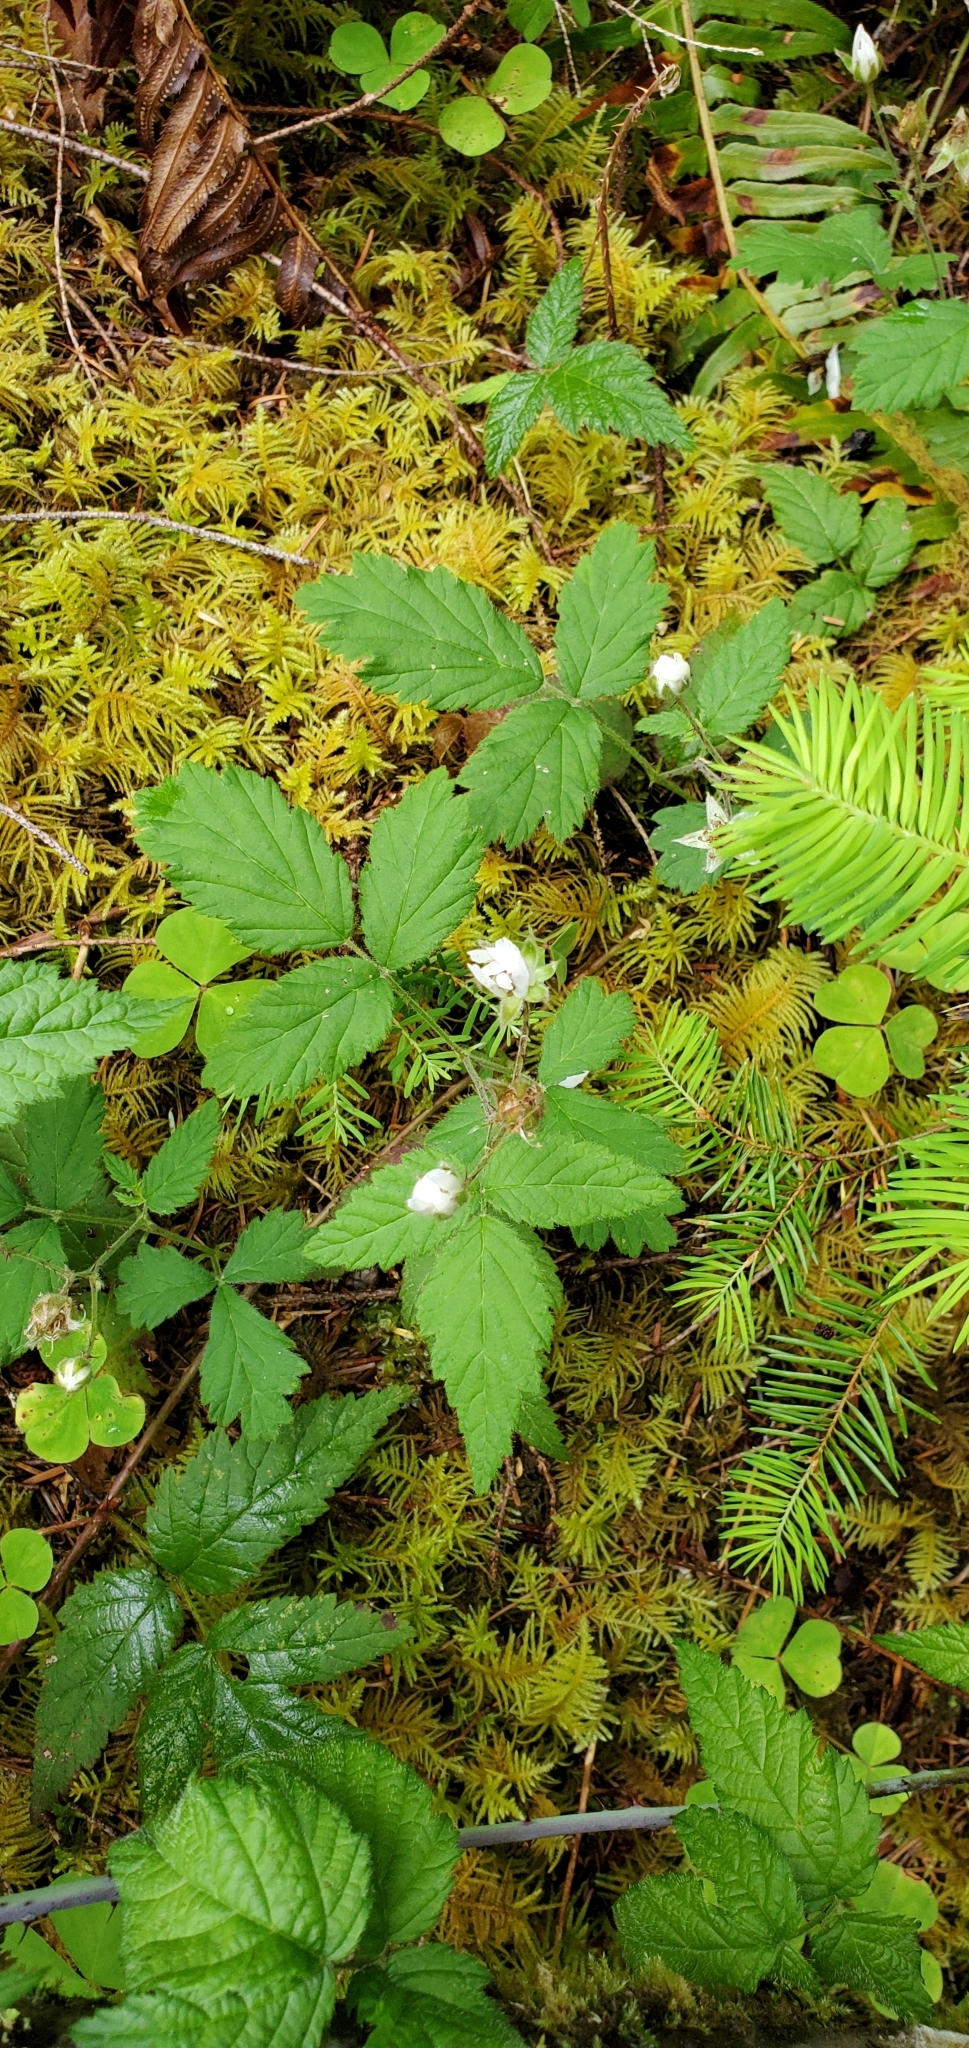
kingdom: Plantae
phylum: Tracheophyta
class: Magnoliopsida
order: Rosales
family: Rosaceae
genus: Rubus
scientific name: Rubus ursinus
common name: Pacific blackberry
